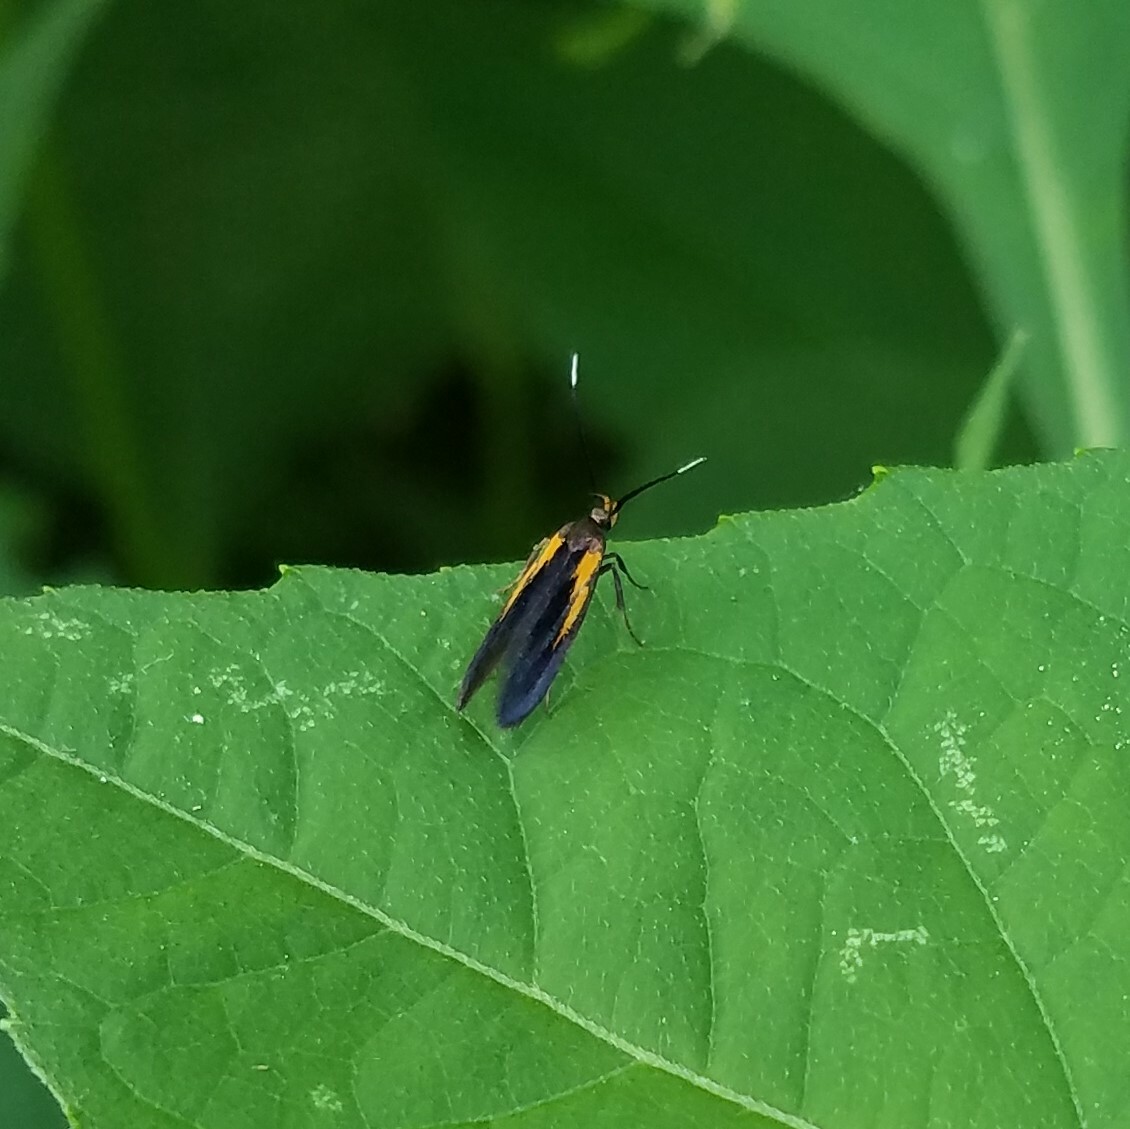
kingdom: Animalia
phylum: Arthropoda
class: Insecta
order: Lepidoptera
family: Oecophoridae
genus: Mathildana
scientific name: Mathildana newmanella
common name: Newman's mathildana moth
